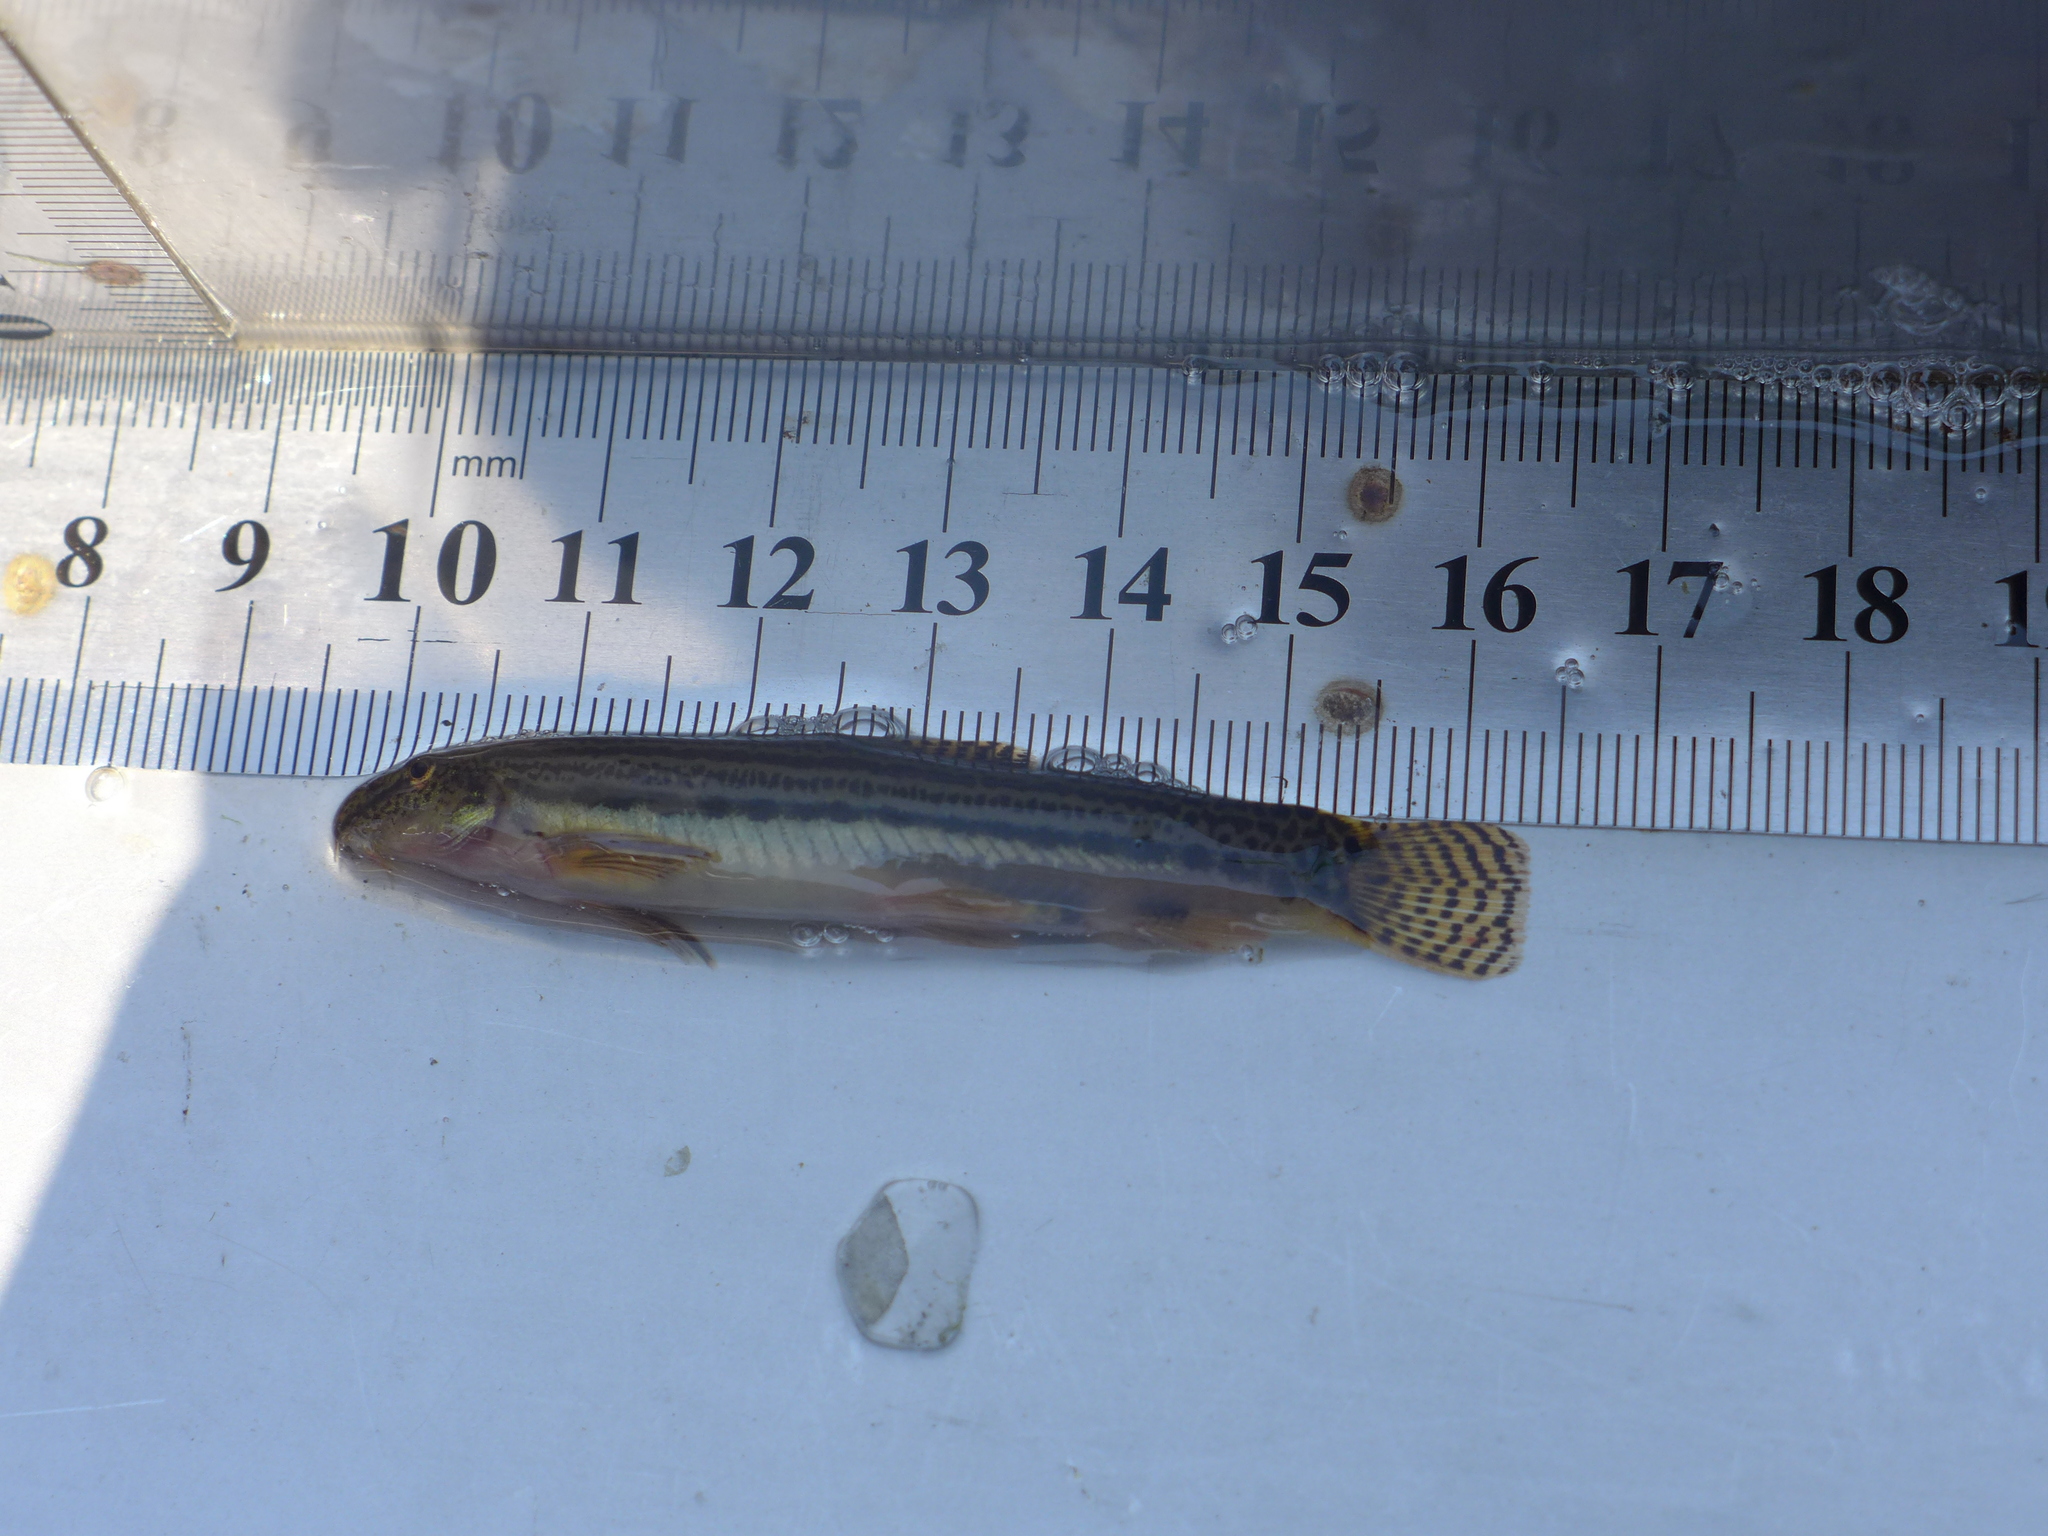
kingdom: Animalia
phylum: Chordata
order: Cypriniformes
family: Cobitidae
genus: Cobitis
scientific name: Cobitis sinensis
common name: Siberian spiny loach
